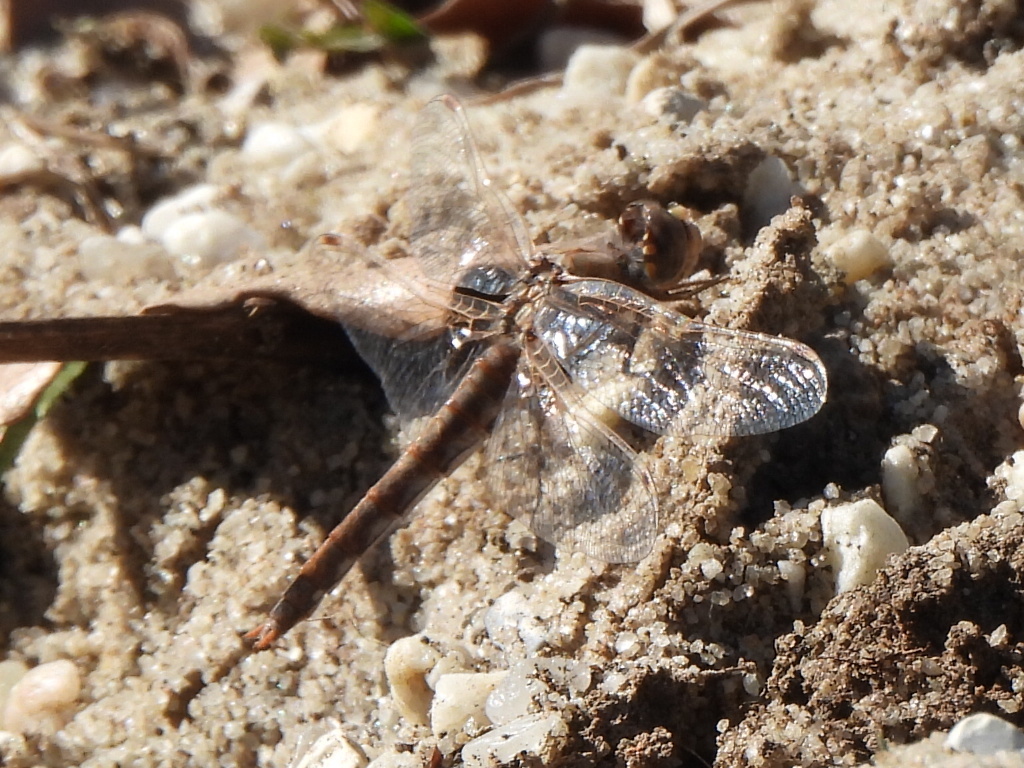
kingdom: Animalia
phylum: Arthropoda
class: Insecta
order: Odonata
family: Libellulidae
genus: Sympetrum
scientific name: Sympetrum corruptum
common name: Variegated meadowhawk
